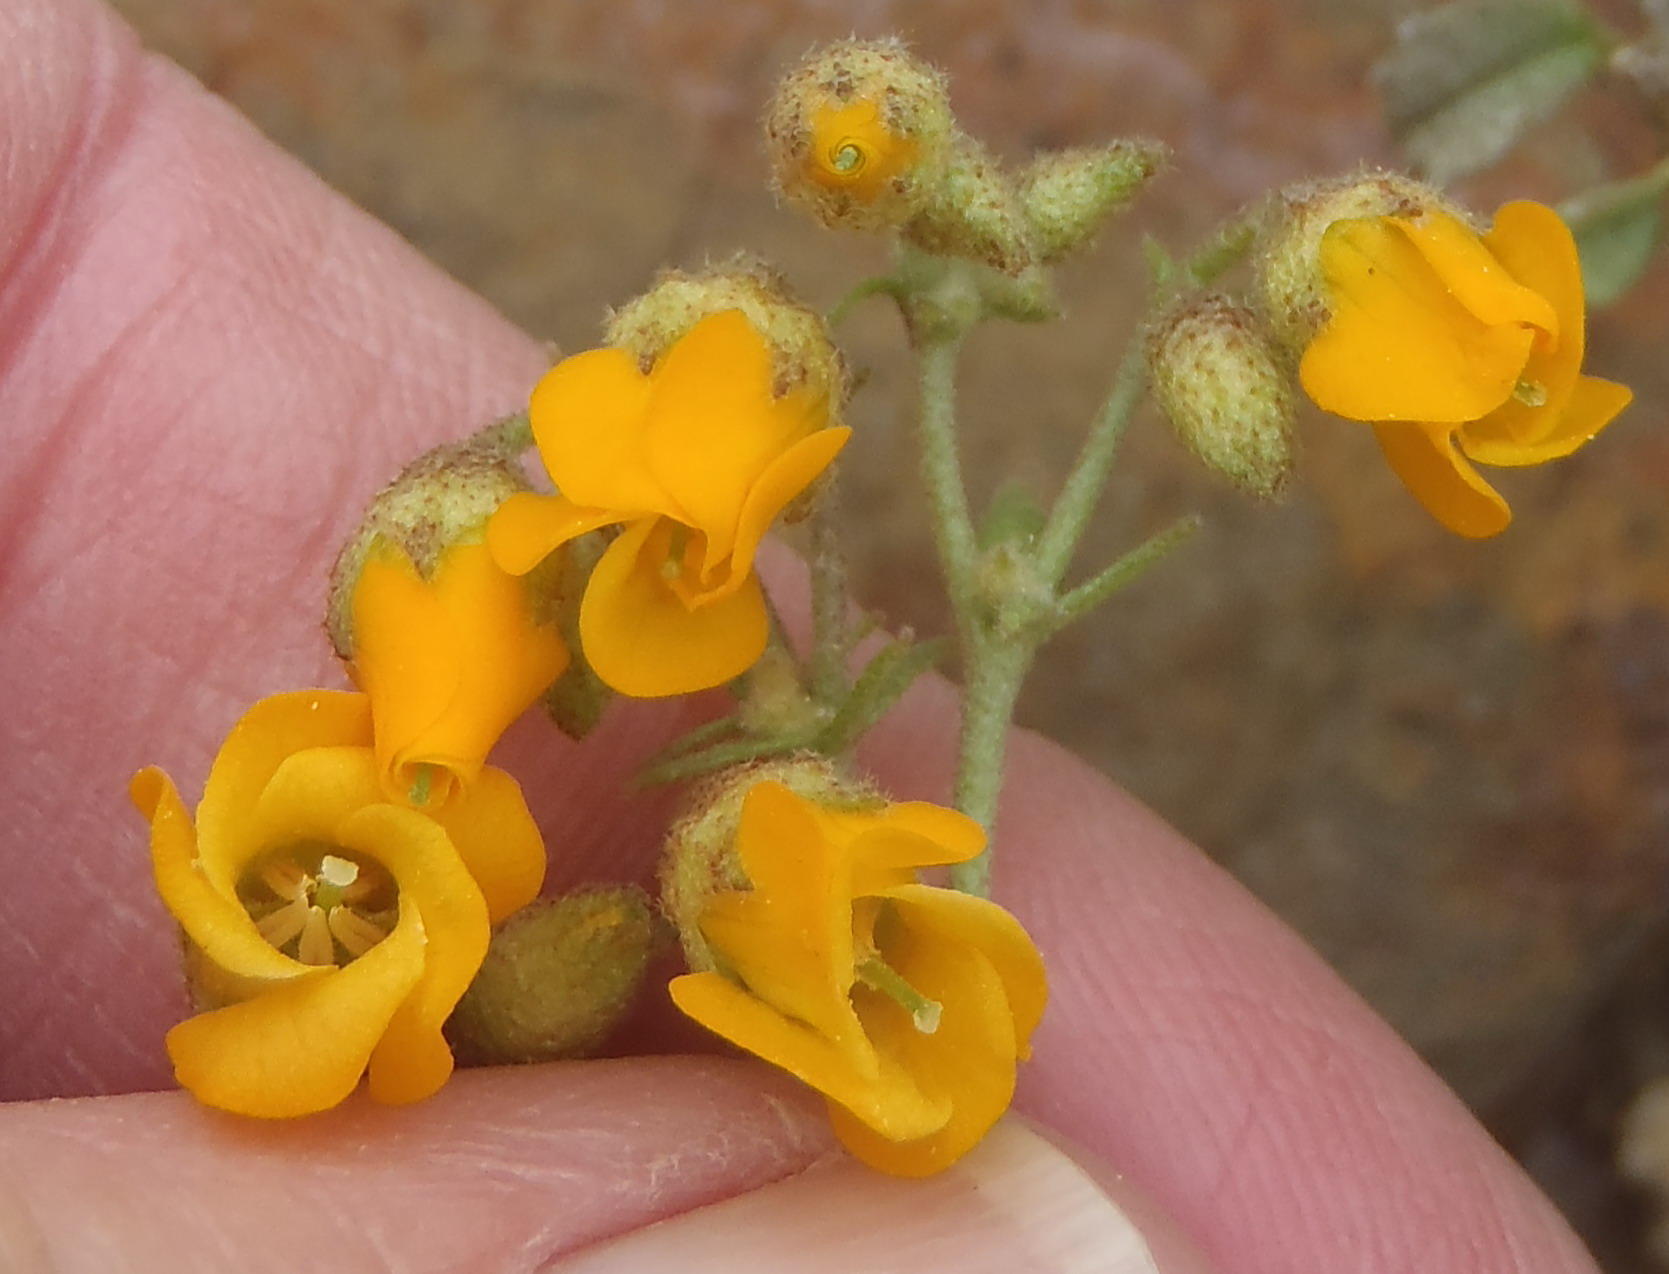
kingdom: Plantae
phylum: Tracheophyta
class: Magnoliopsida
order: Malvales
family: Malvaceae
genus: Hermannia
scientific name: Hermannia cuneifolia
